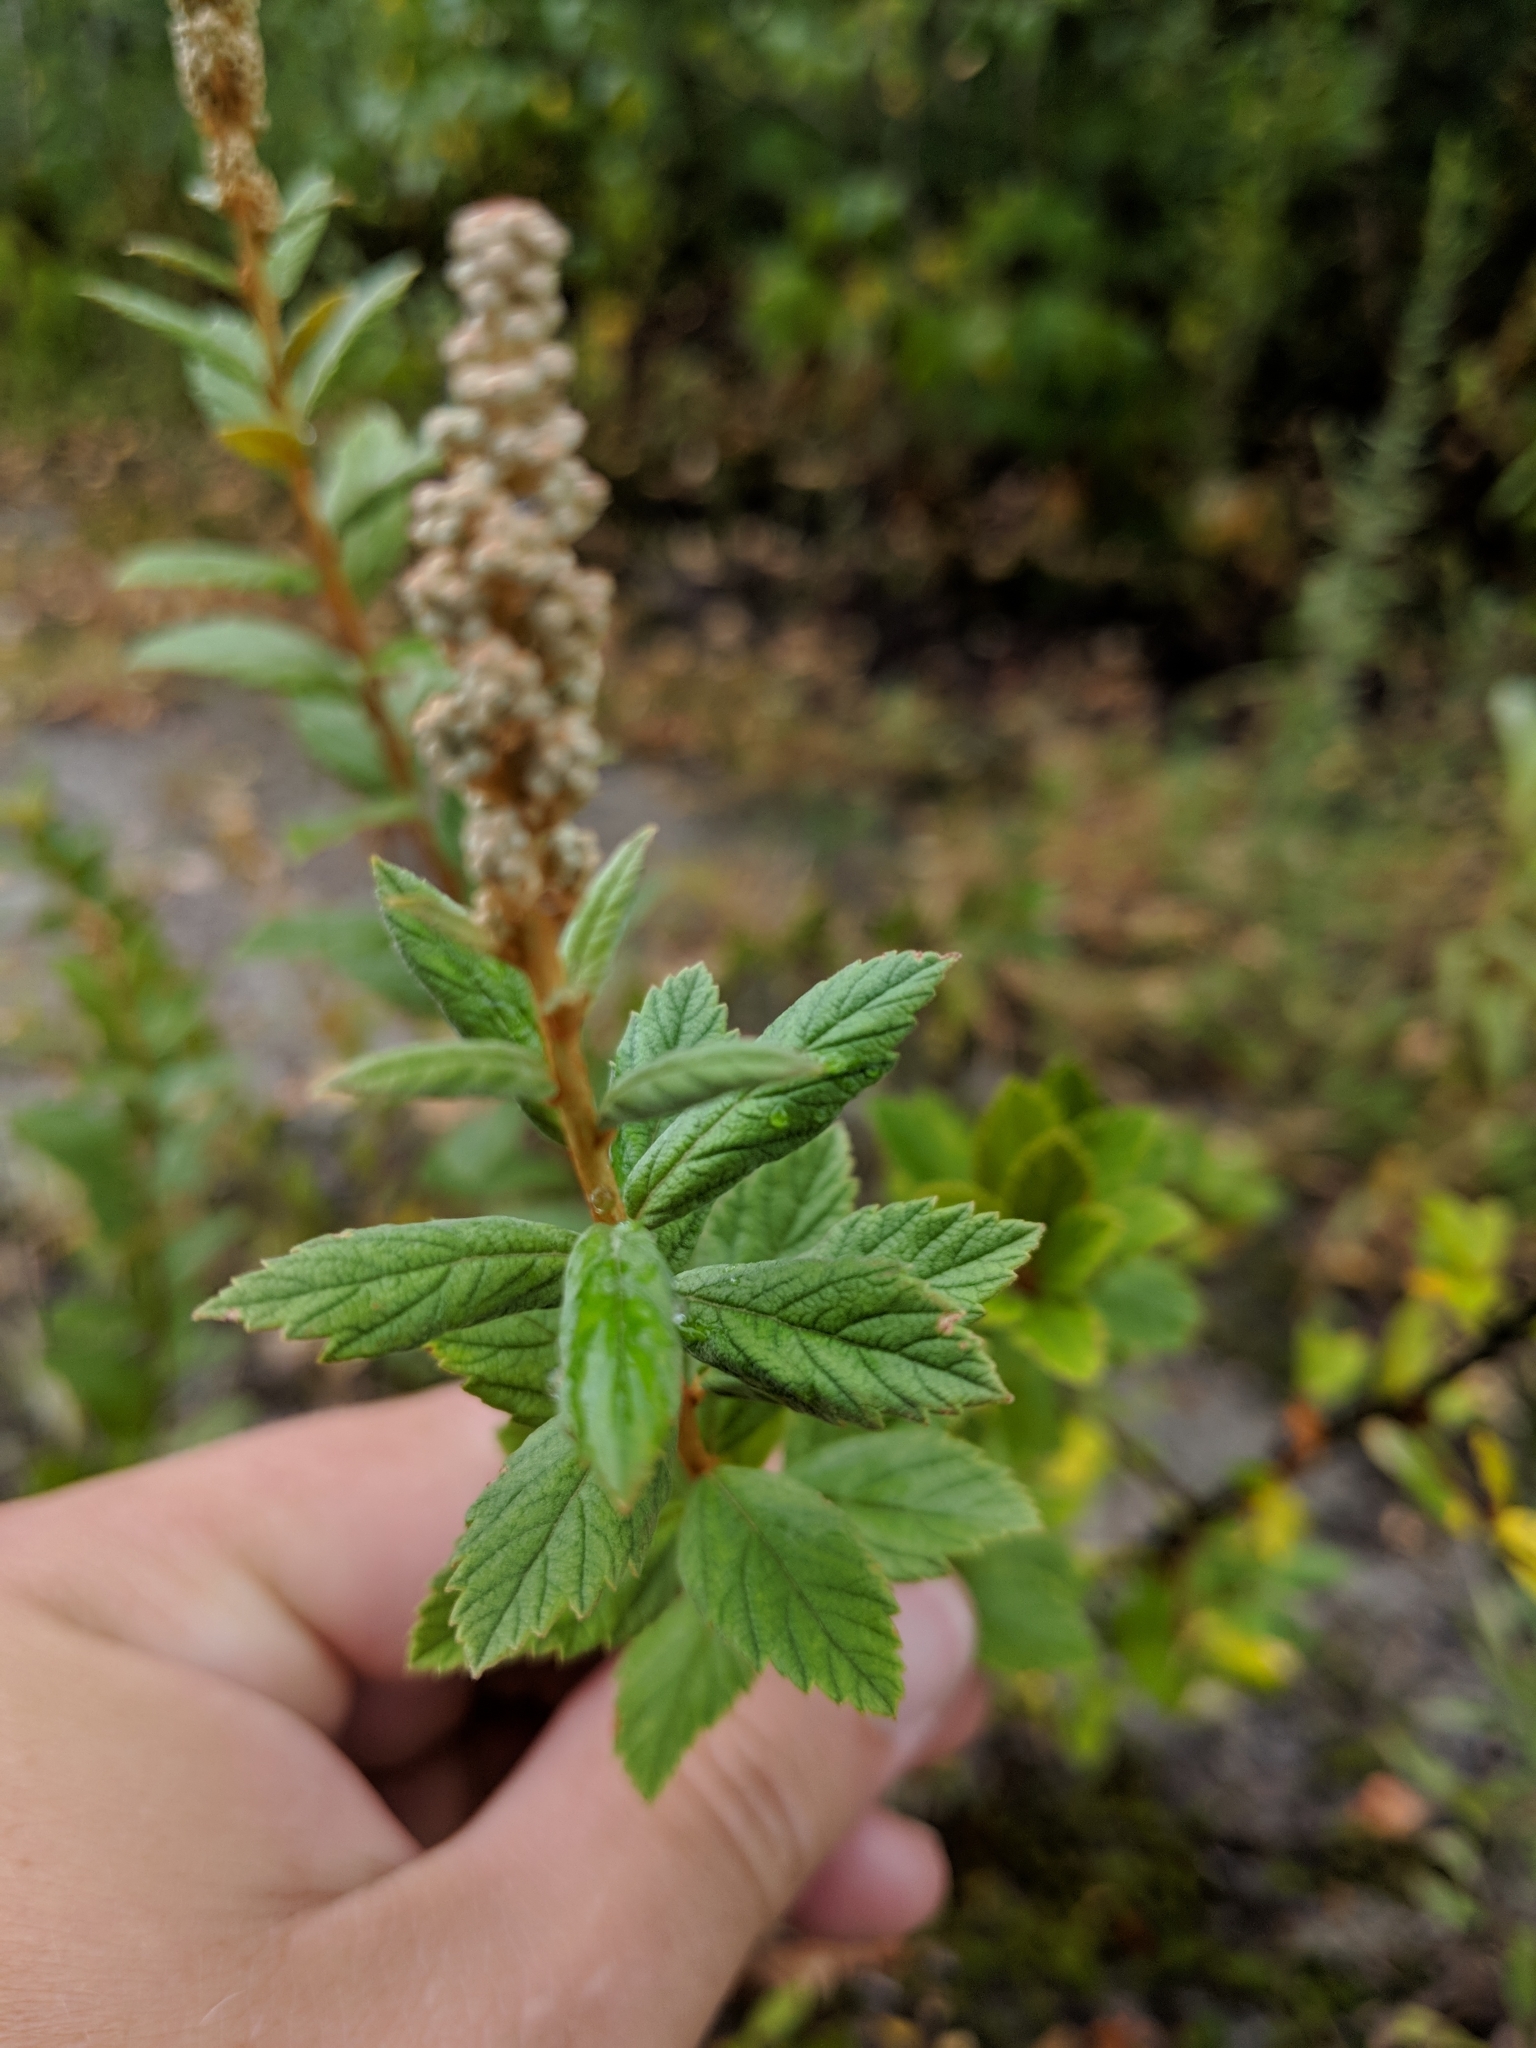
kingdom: Plantae
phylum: Tracheophyta
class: Magnoliopsida
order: Rosales
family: Rosaceae
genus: Spiraea
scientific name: Spiraea tomentosa
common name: Hardhack
